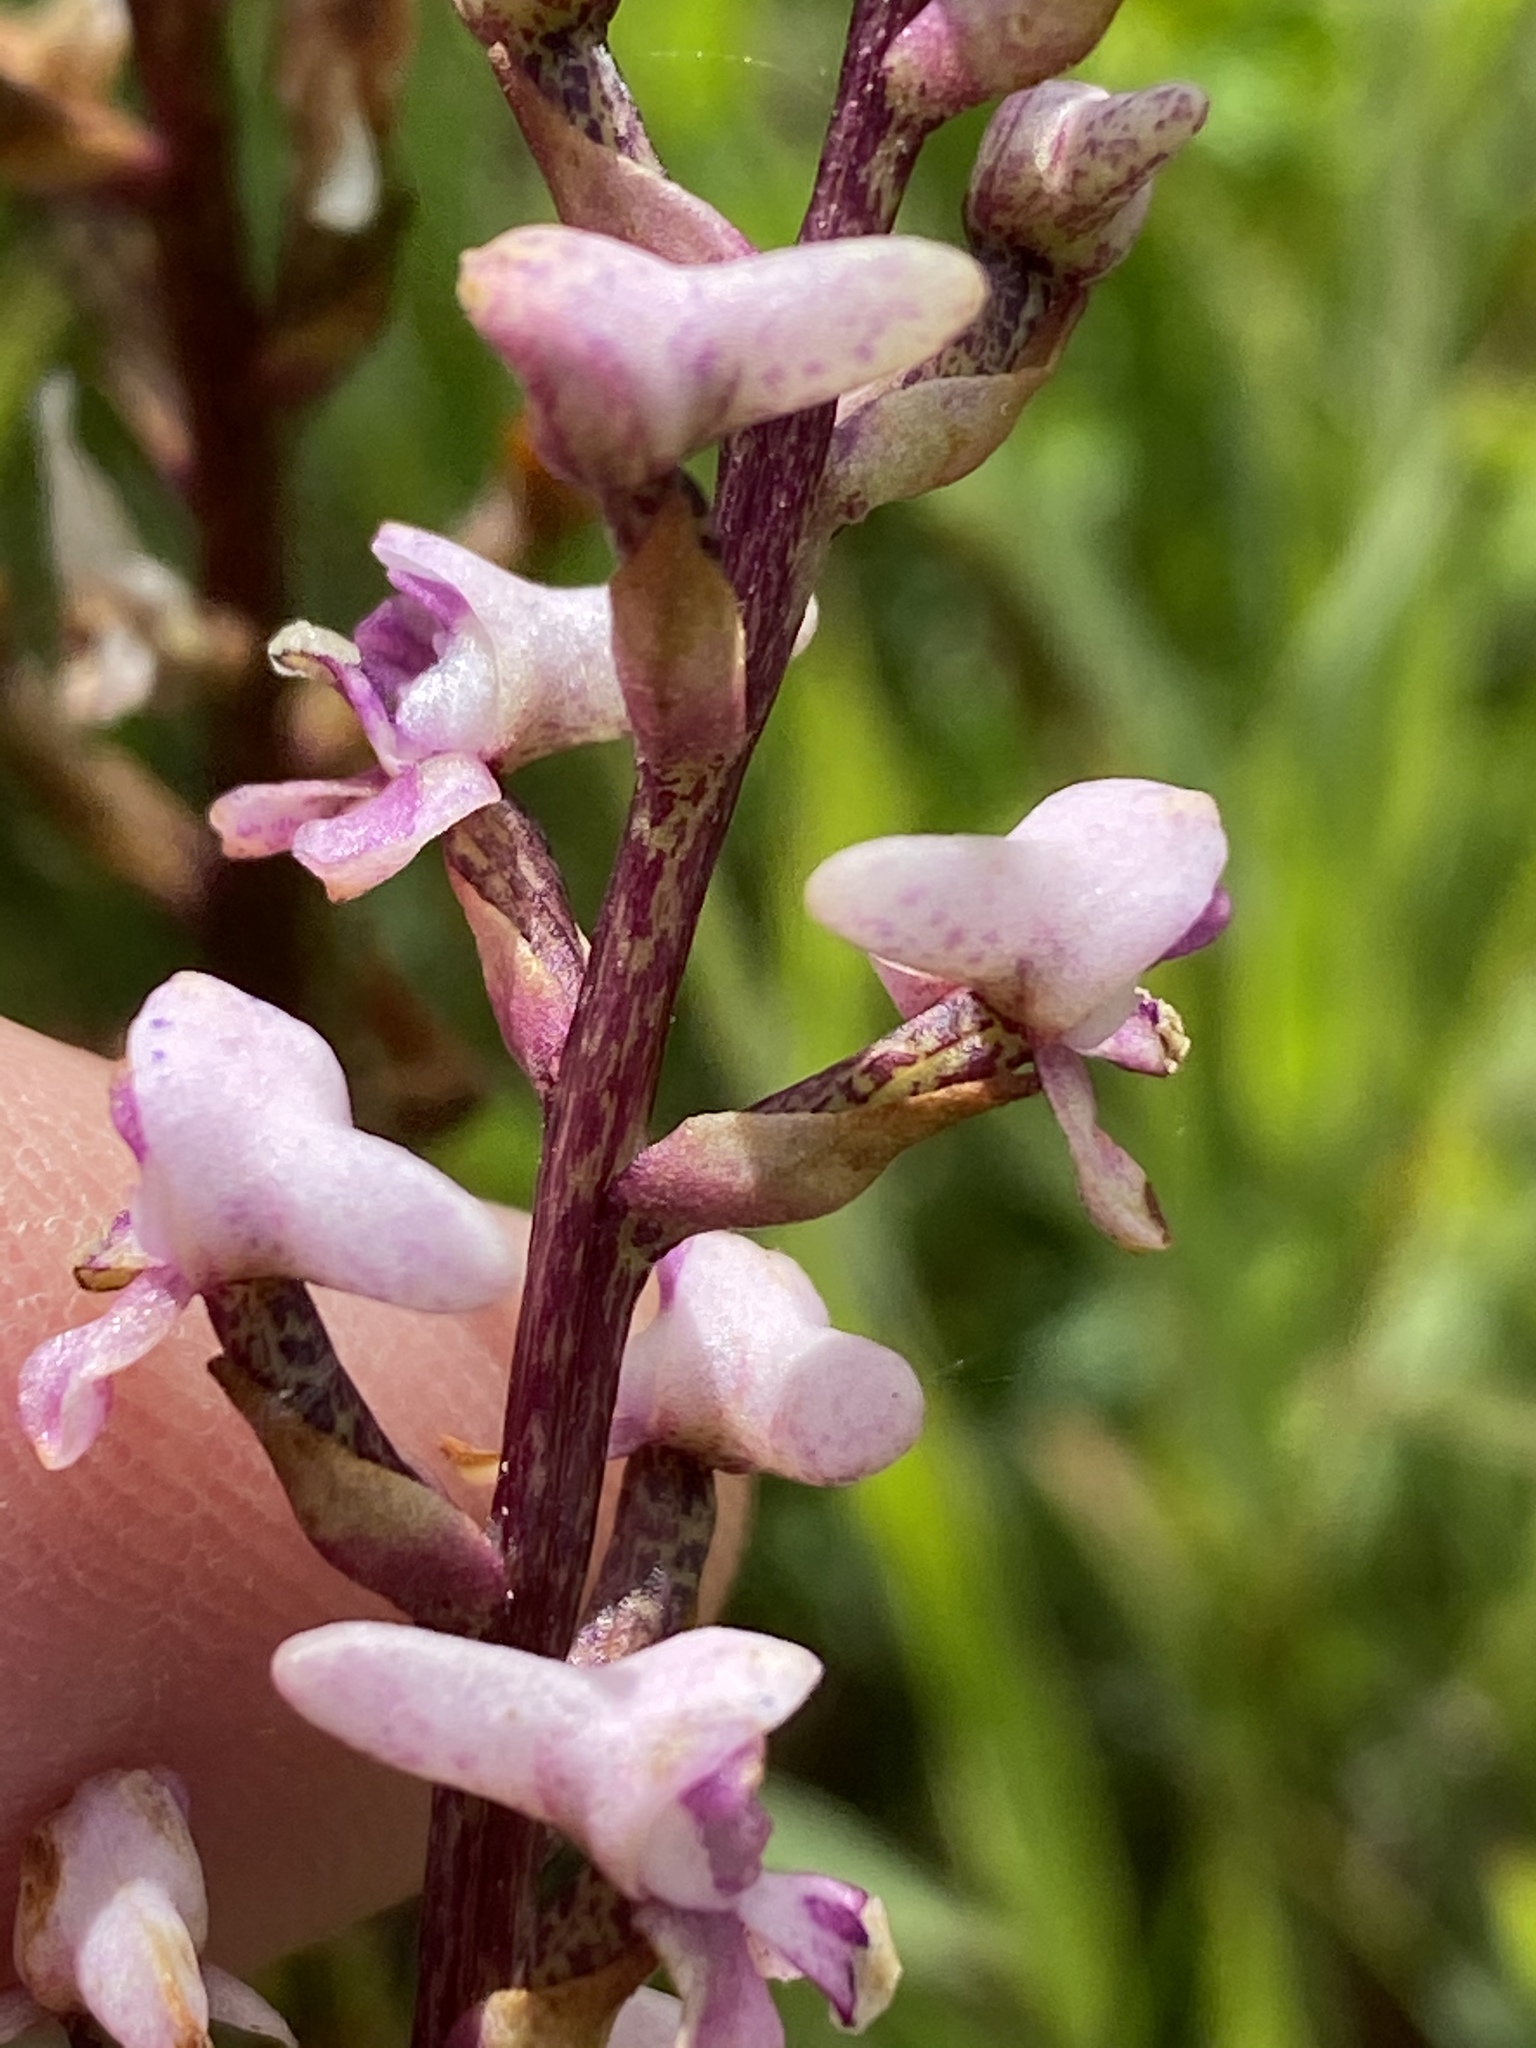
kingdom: Plantae
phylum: Tracheophyta
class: Liliopsida
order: Asparagales
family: Orchidaceae
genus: Disa
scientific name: Disa aconitoides
